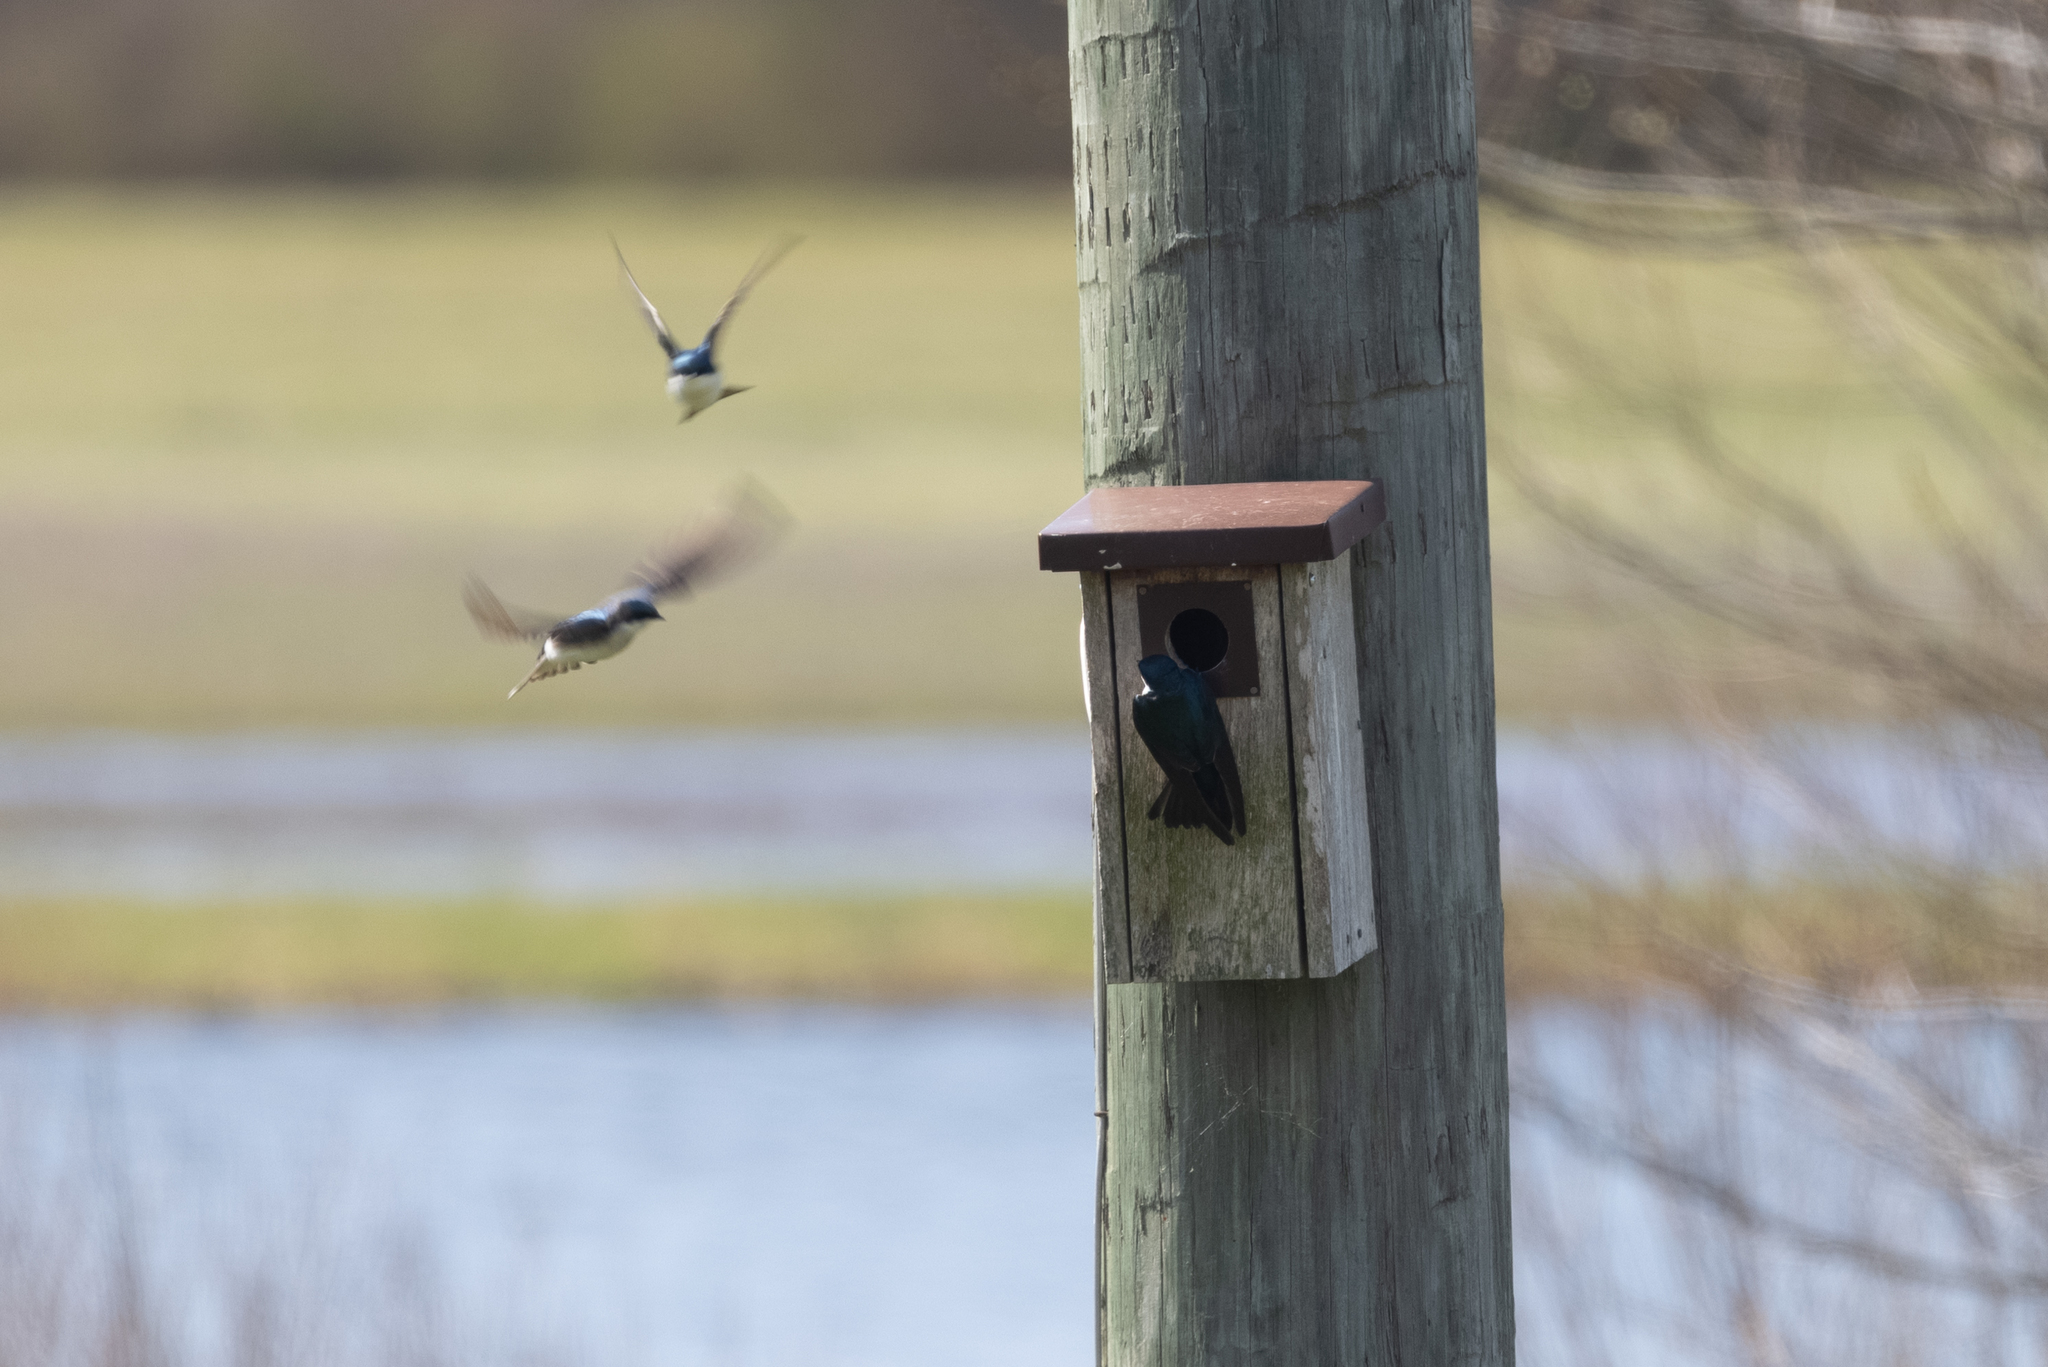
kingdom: Animalia
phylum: Chordata
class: Aves
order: Passeriformes
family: Hirundinidae
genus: Tachycineta
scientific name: Tachycineta bicolor
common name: Tree swallow
